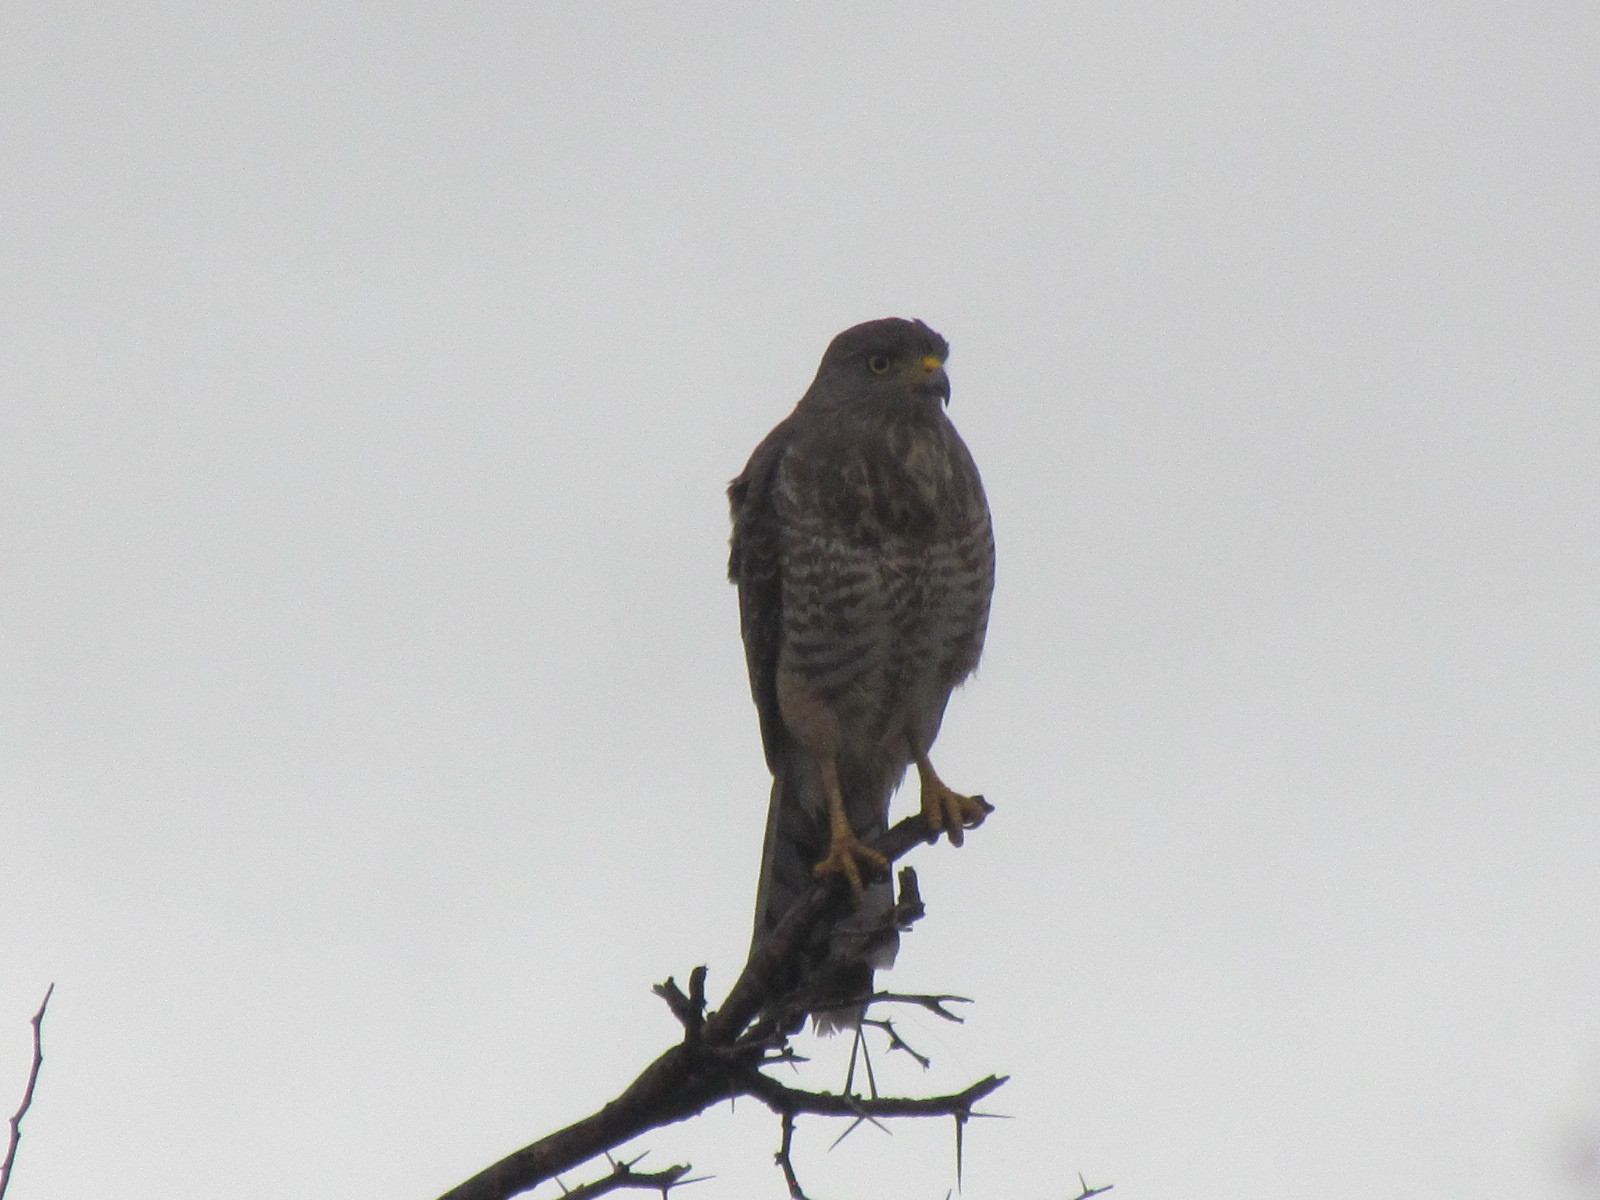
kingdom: Animalia
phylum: Chordata
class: Aves
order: Accipitriformes
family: Accipitridae
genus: Rupornis
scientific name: Rupornis magnirostris
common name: Roadside hawk
